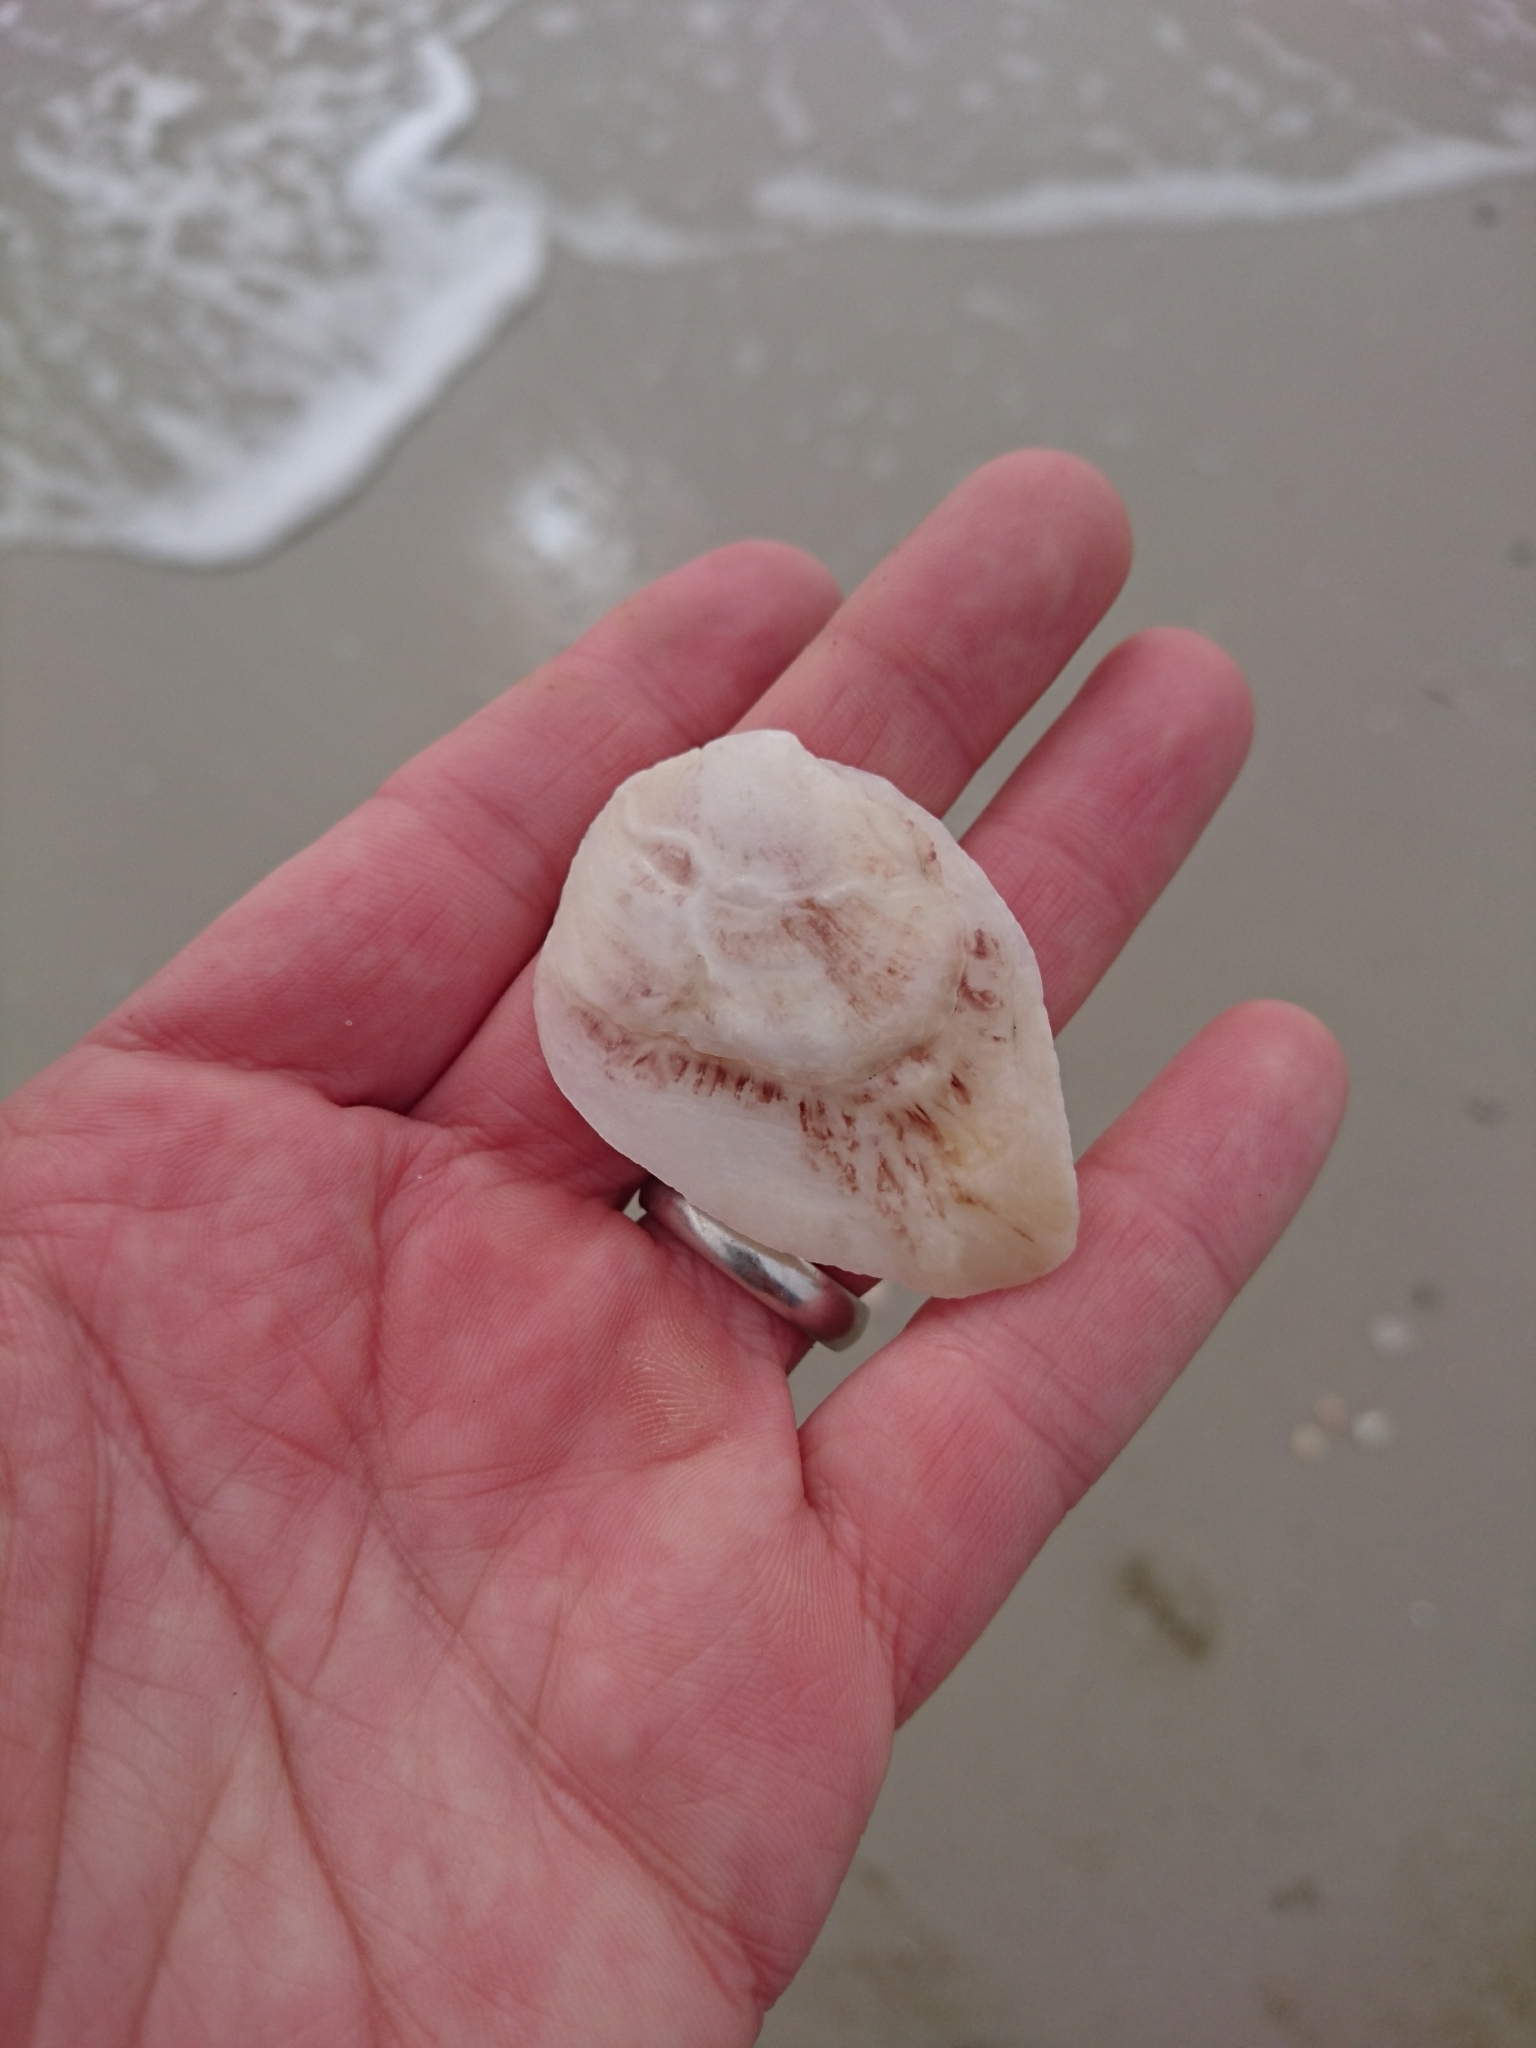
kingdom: Animalia
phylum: Mollusca
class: Bivalvia
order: Ostreida
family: Ostreidae
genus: Crassostrea
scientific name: Crassostrea virginica
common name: American oyster
